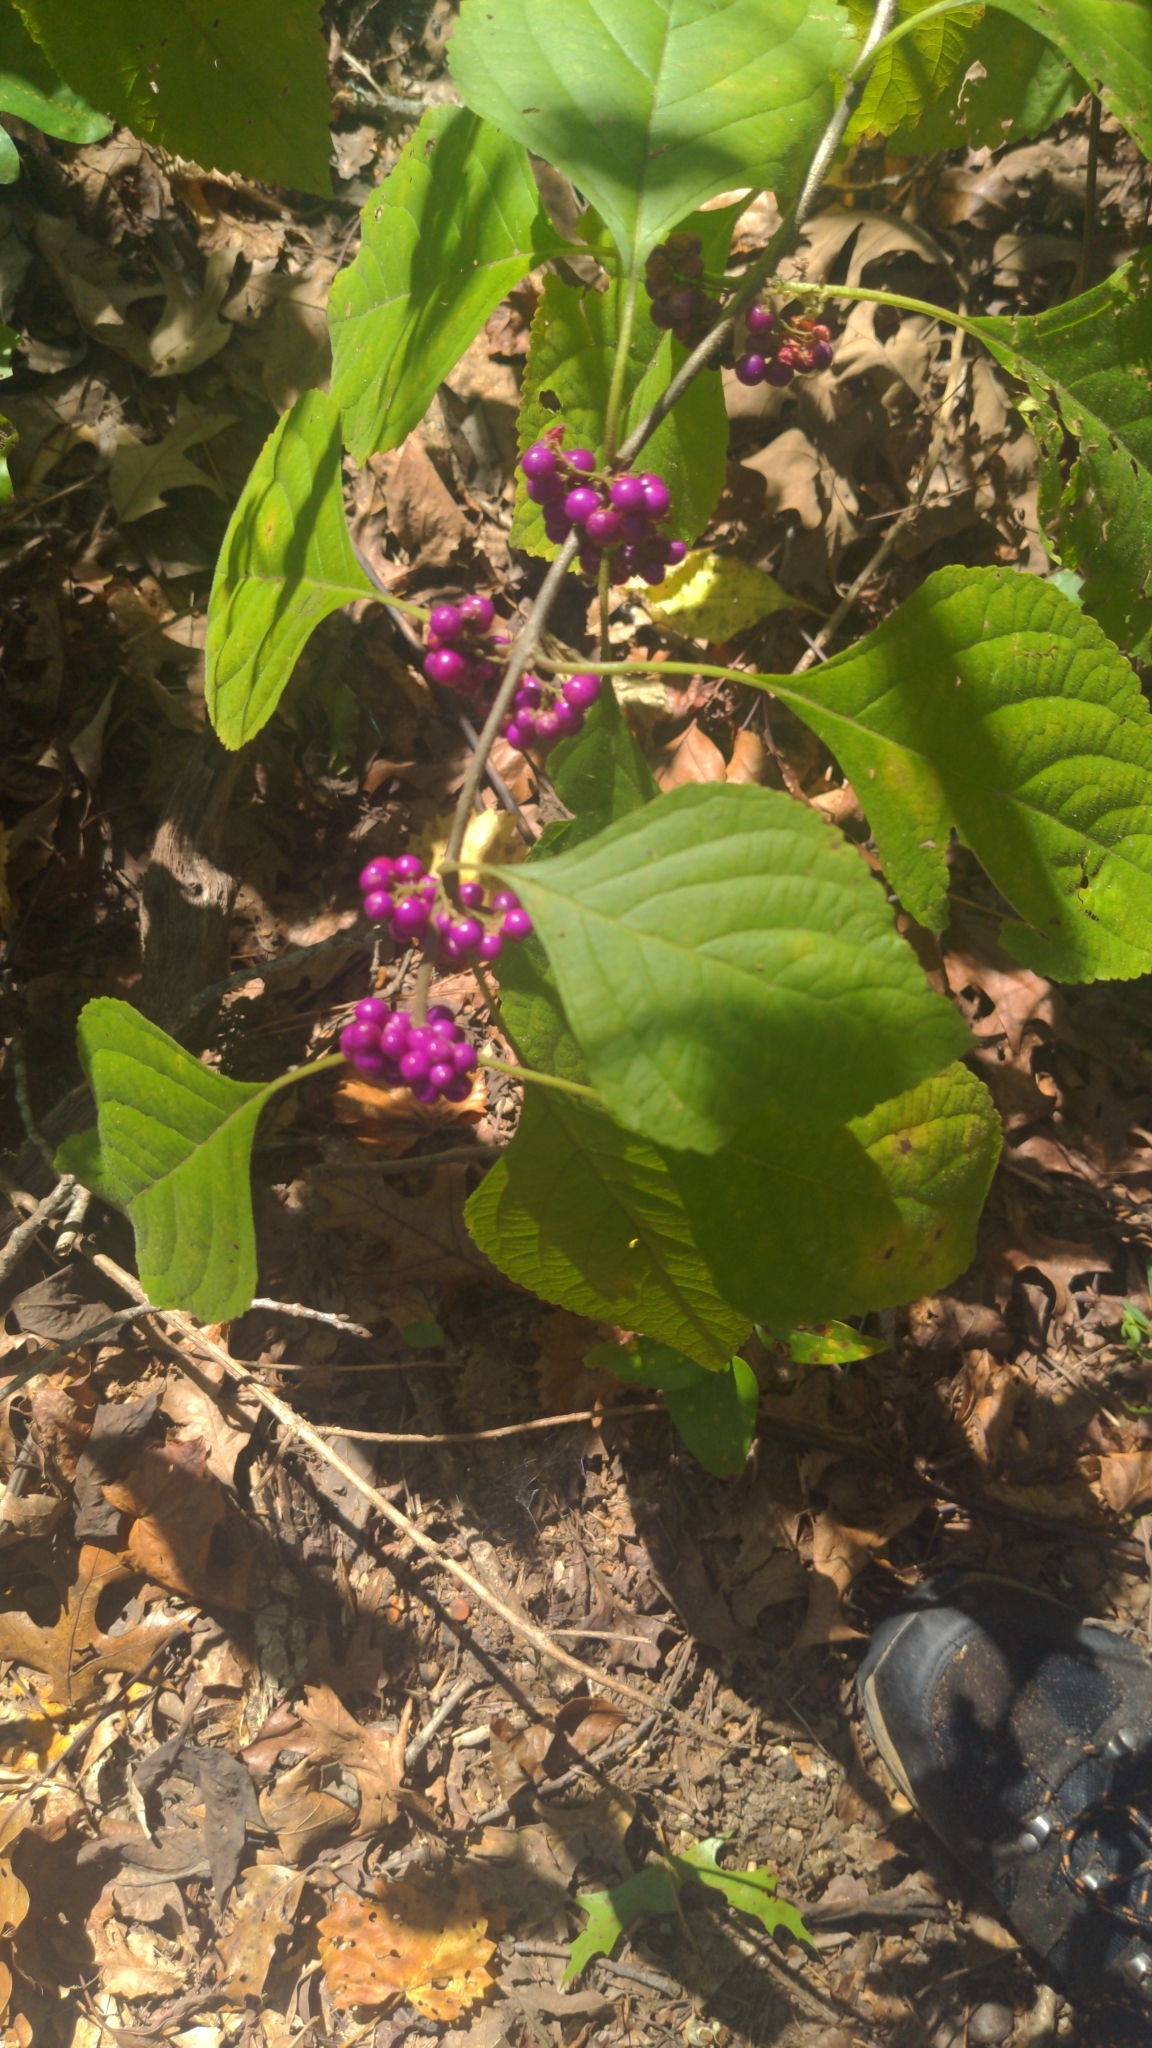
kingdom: Plantae
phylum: Tracheophyta
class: Magnoliopsida
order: Lamiales
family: Lamiaceae
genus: Callicarpa
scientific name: Callicarpa americana
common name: American beautyberry
